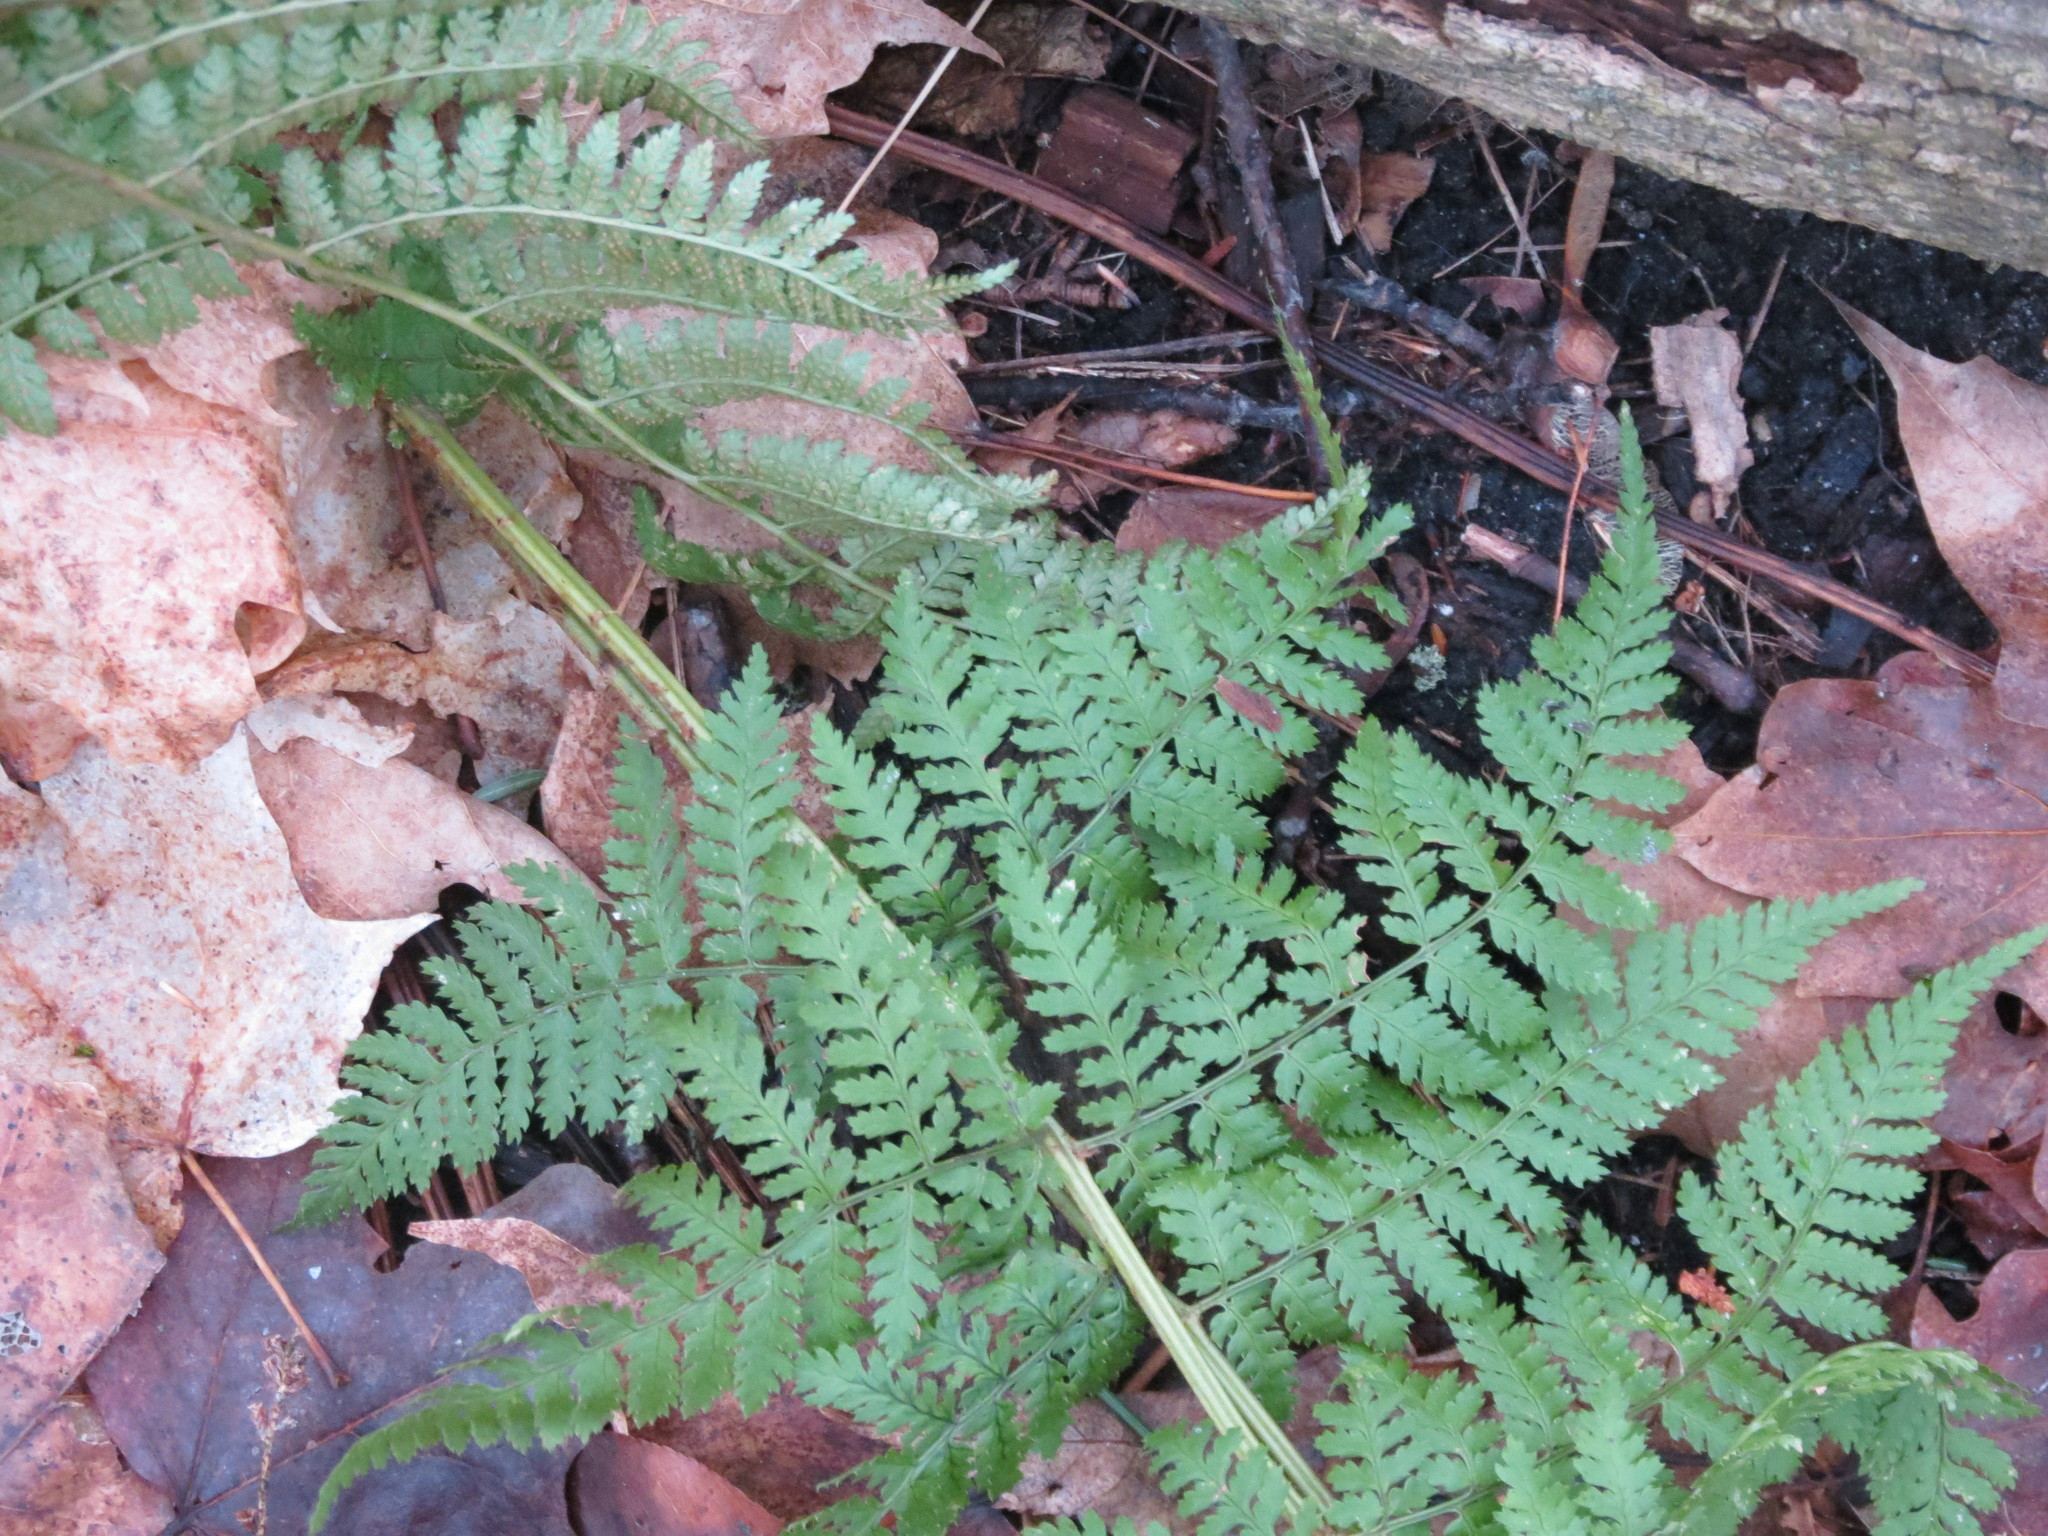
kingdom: Plantae
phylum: Tracheophyta
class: Polypodiopsida
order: Polypodiales
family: Dryopteridaceae
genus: Dryopteris
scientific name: Dryopteris intermedia
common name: Evergreen wood fern
